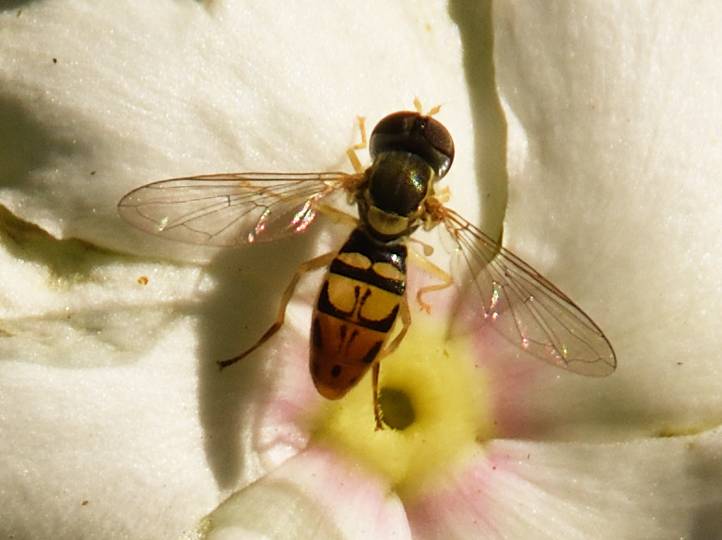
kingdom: Animalia
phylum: Arthropoda
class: Insecta
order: Diptera
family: Syrphidae
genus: Toxomerus
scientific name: Toxomerus marginatus
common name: Syrphid fly
